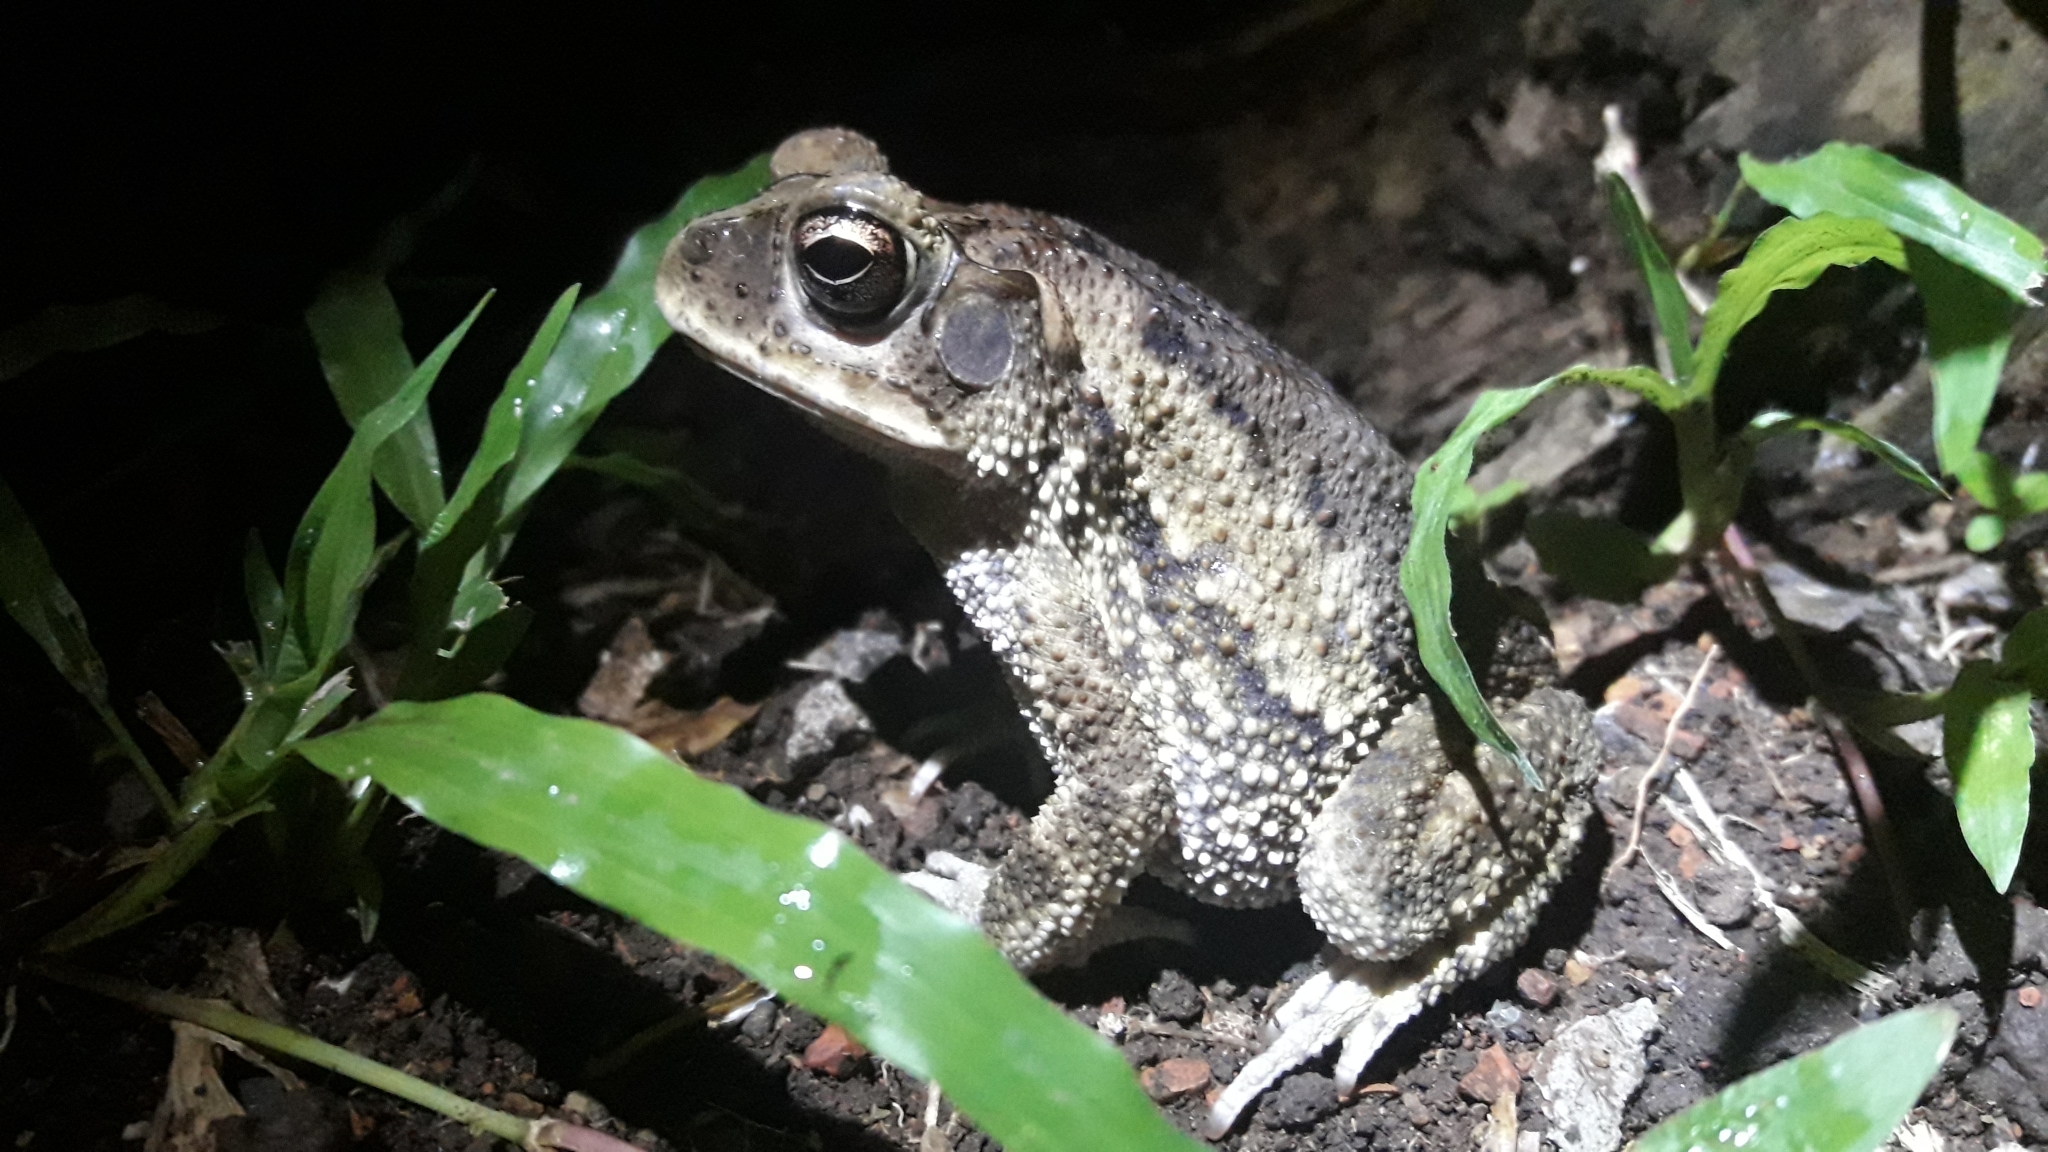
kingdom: Animalia
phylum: Chordata
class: Amphibia
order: Anura
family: Bufonidae
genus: Incilius
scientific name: Incilius luetkenii
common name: Yellow toad
